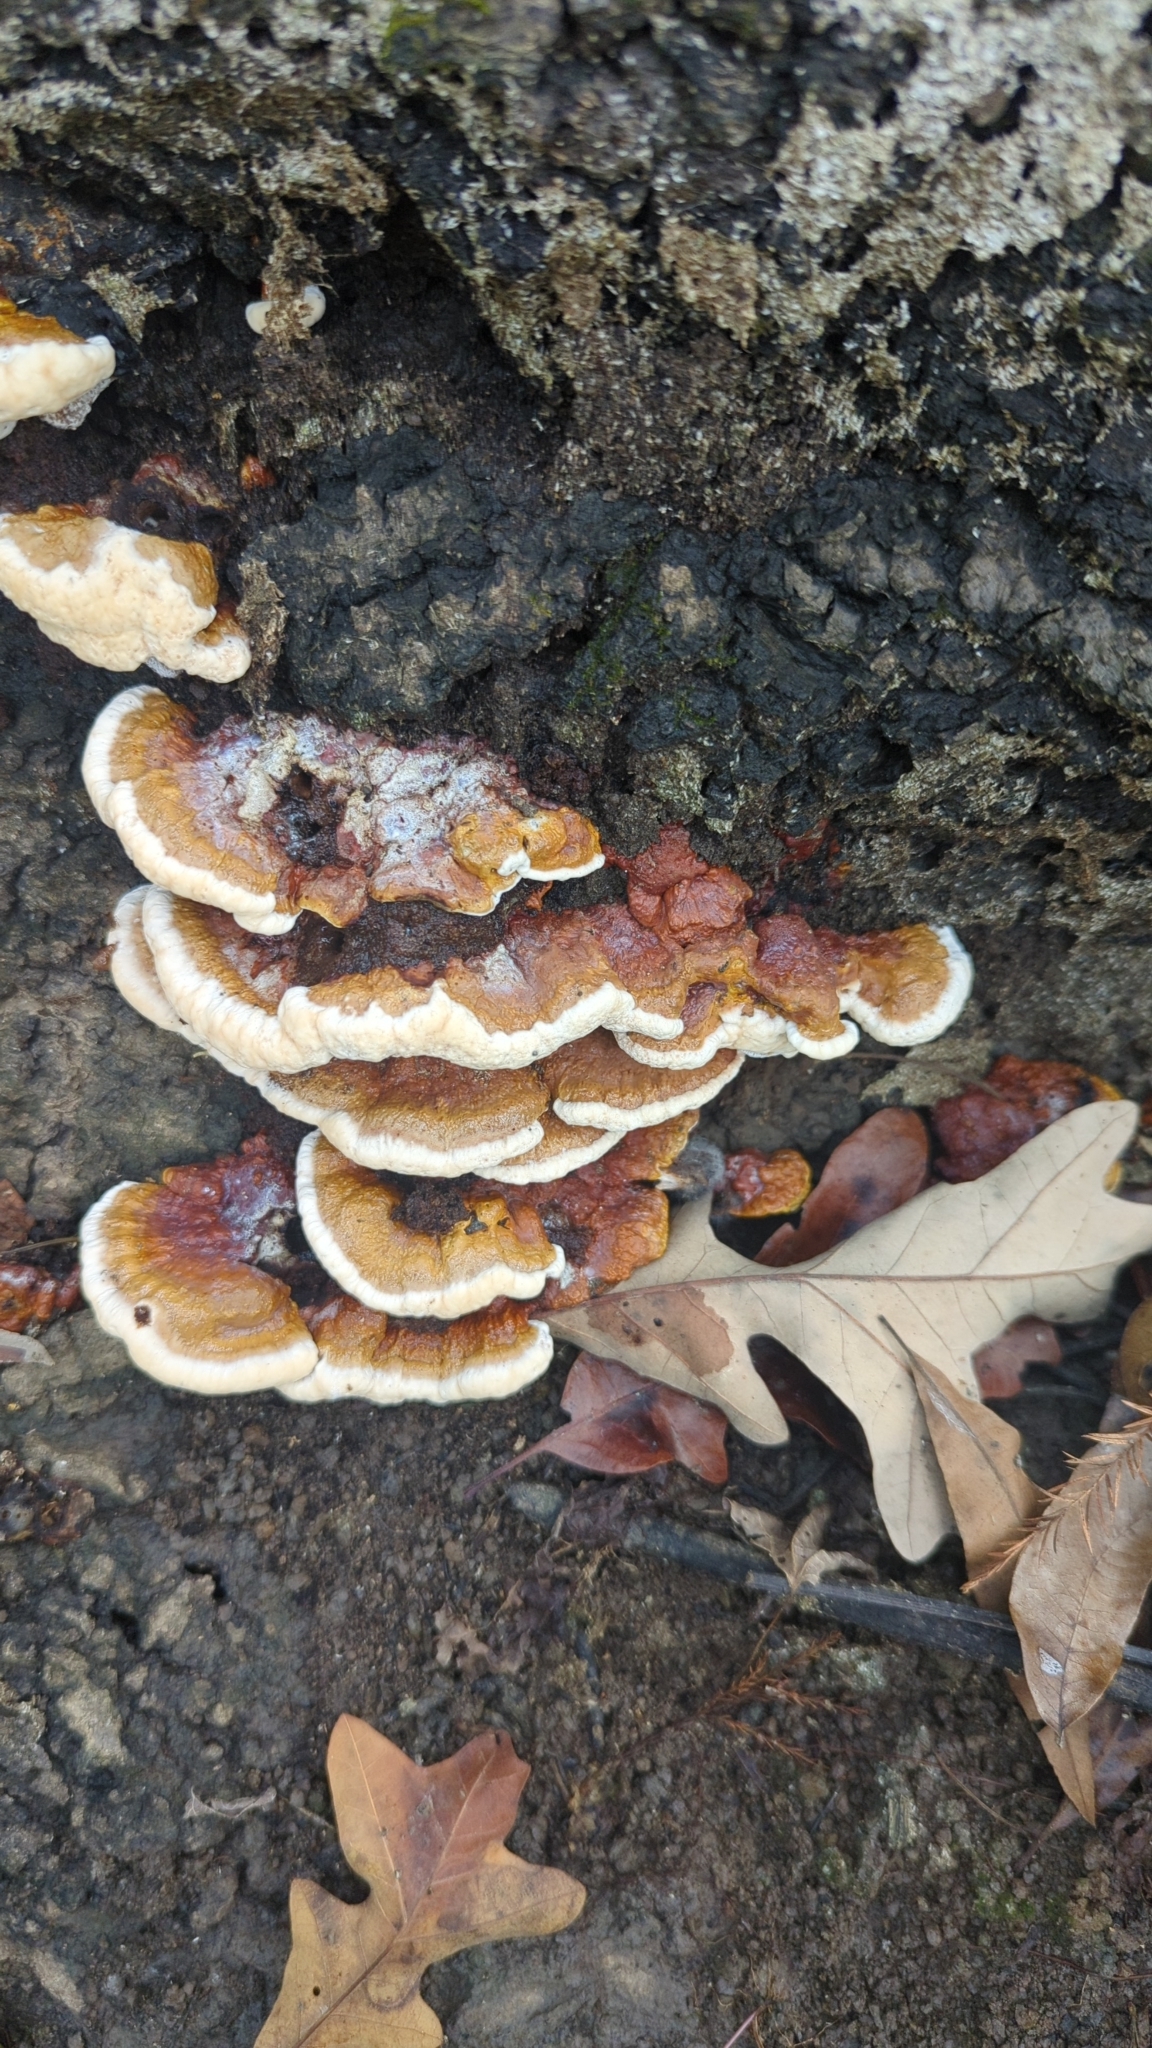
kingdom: Fungi
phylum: Basidiomycota
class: Agaricomycetes
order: Polyporales
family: Polyporaceae
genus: Ganoderma
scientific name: Ganoderma resinaceum
